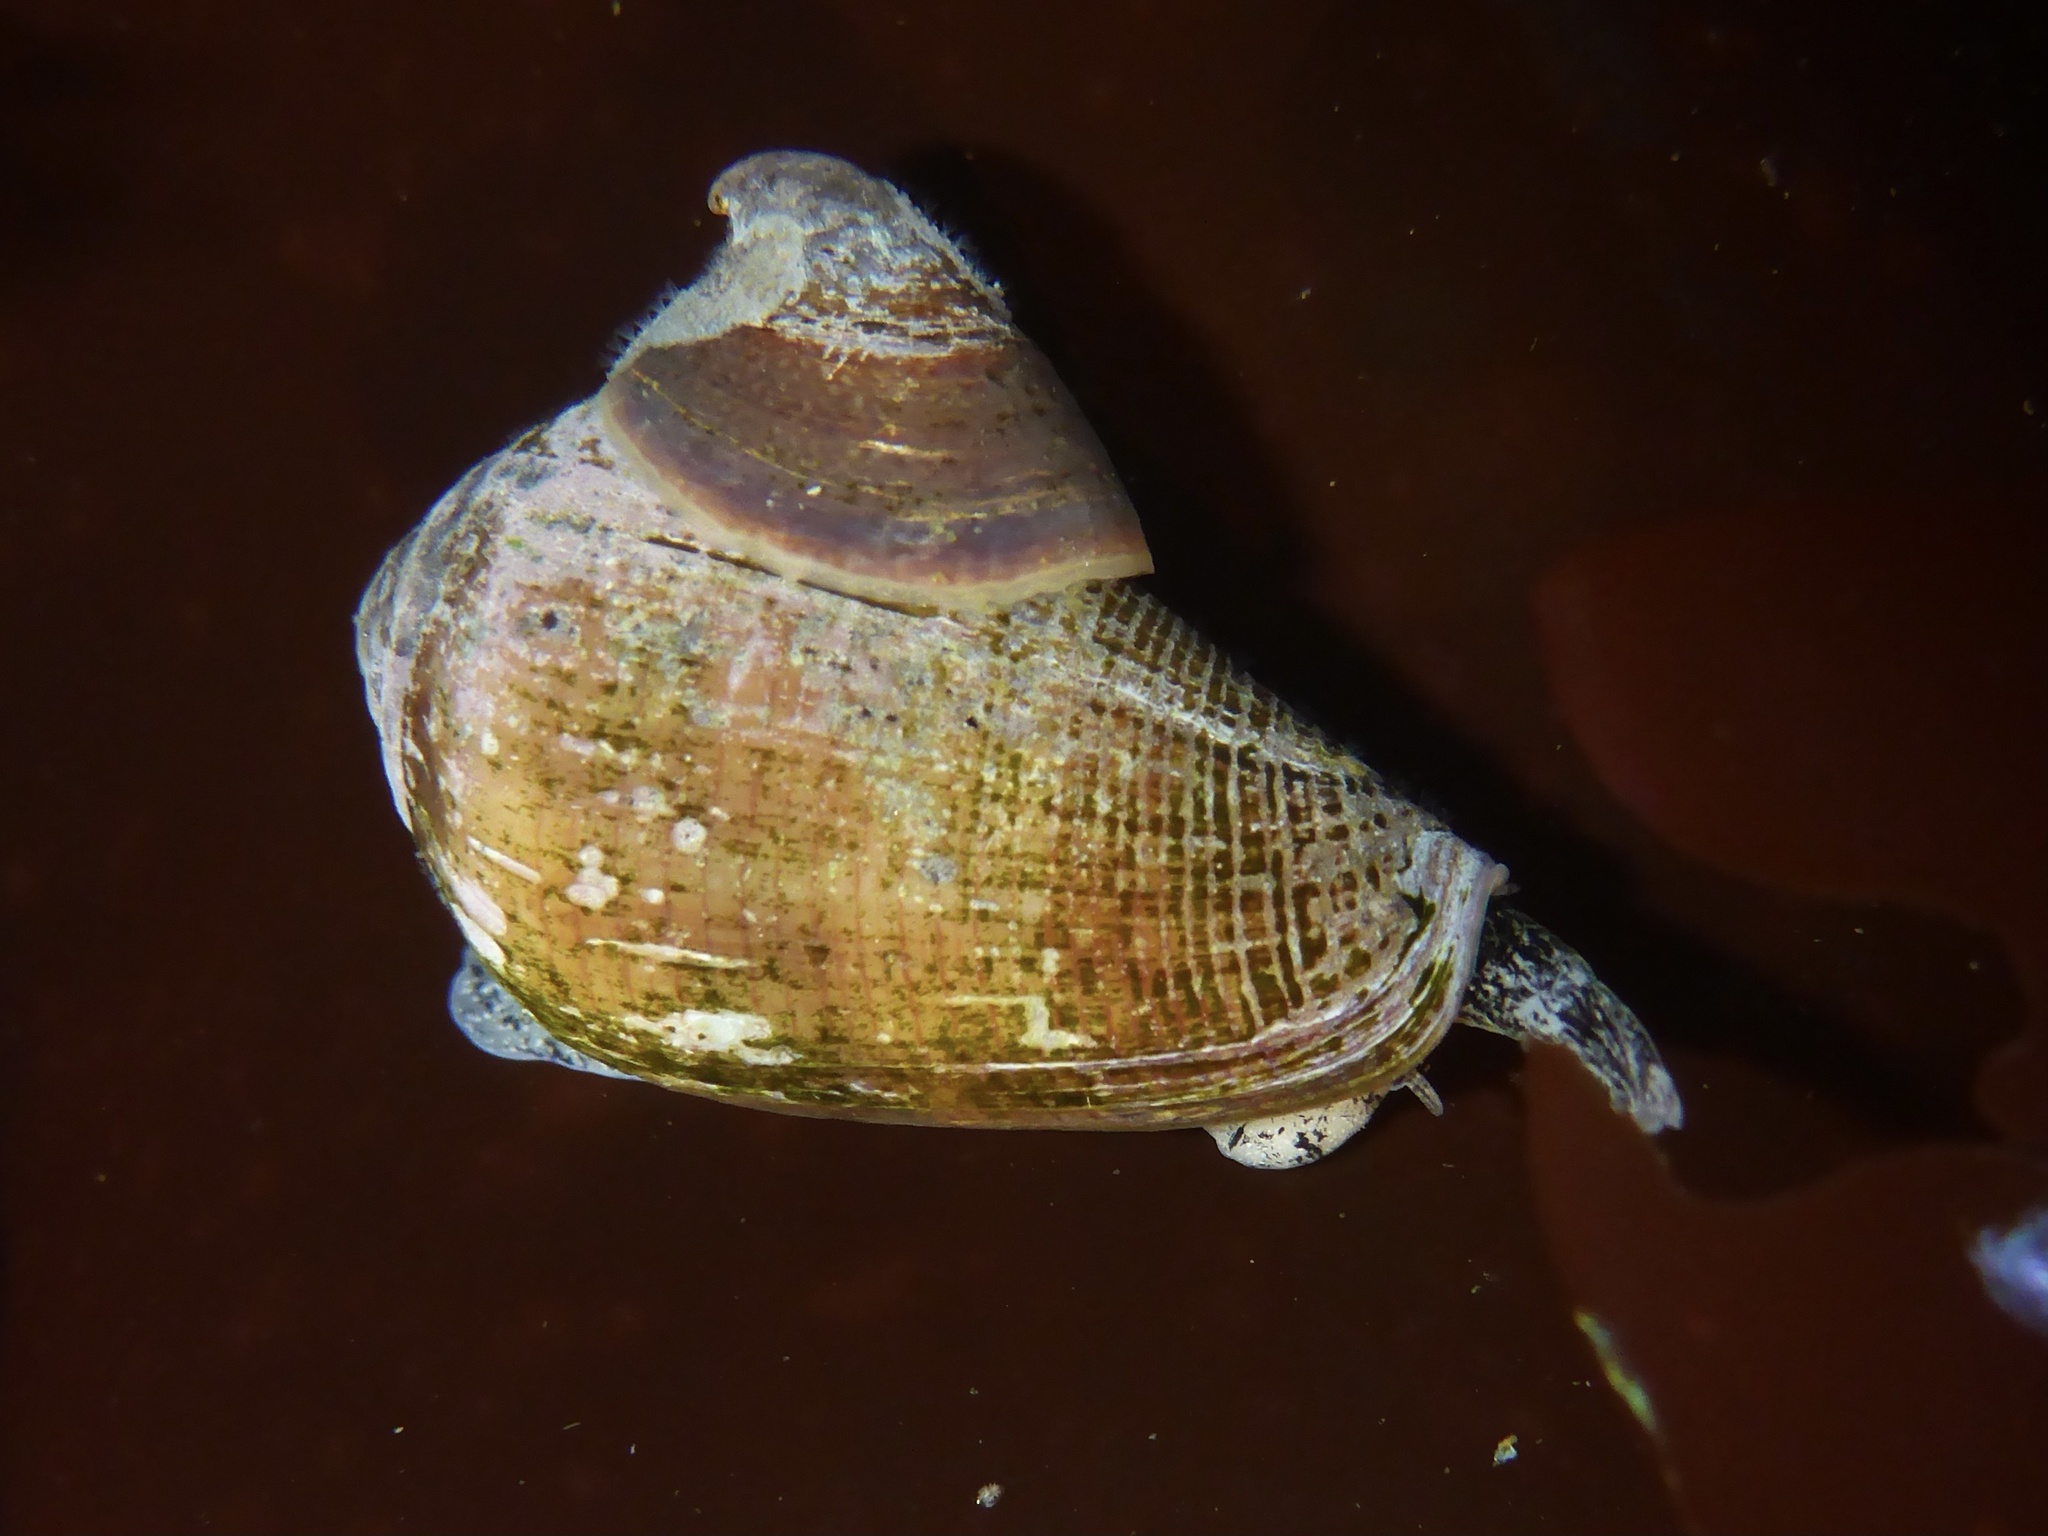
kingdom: Animalia
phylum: Mollusca
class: Gastropoda
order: Neogastropoda
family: Conidae
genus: Californiconus
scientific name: Californiconus californicus
